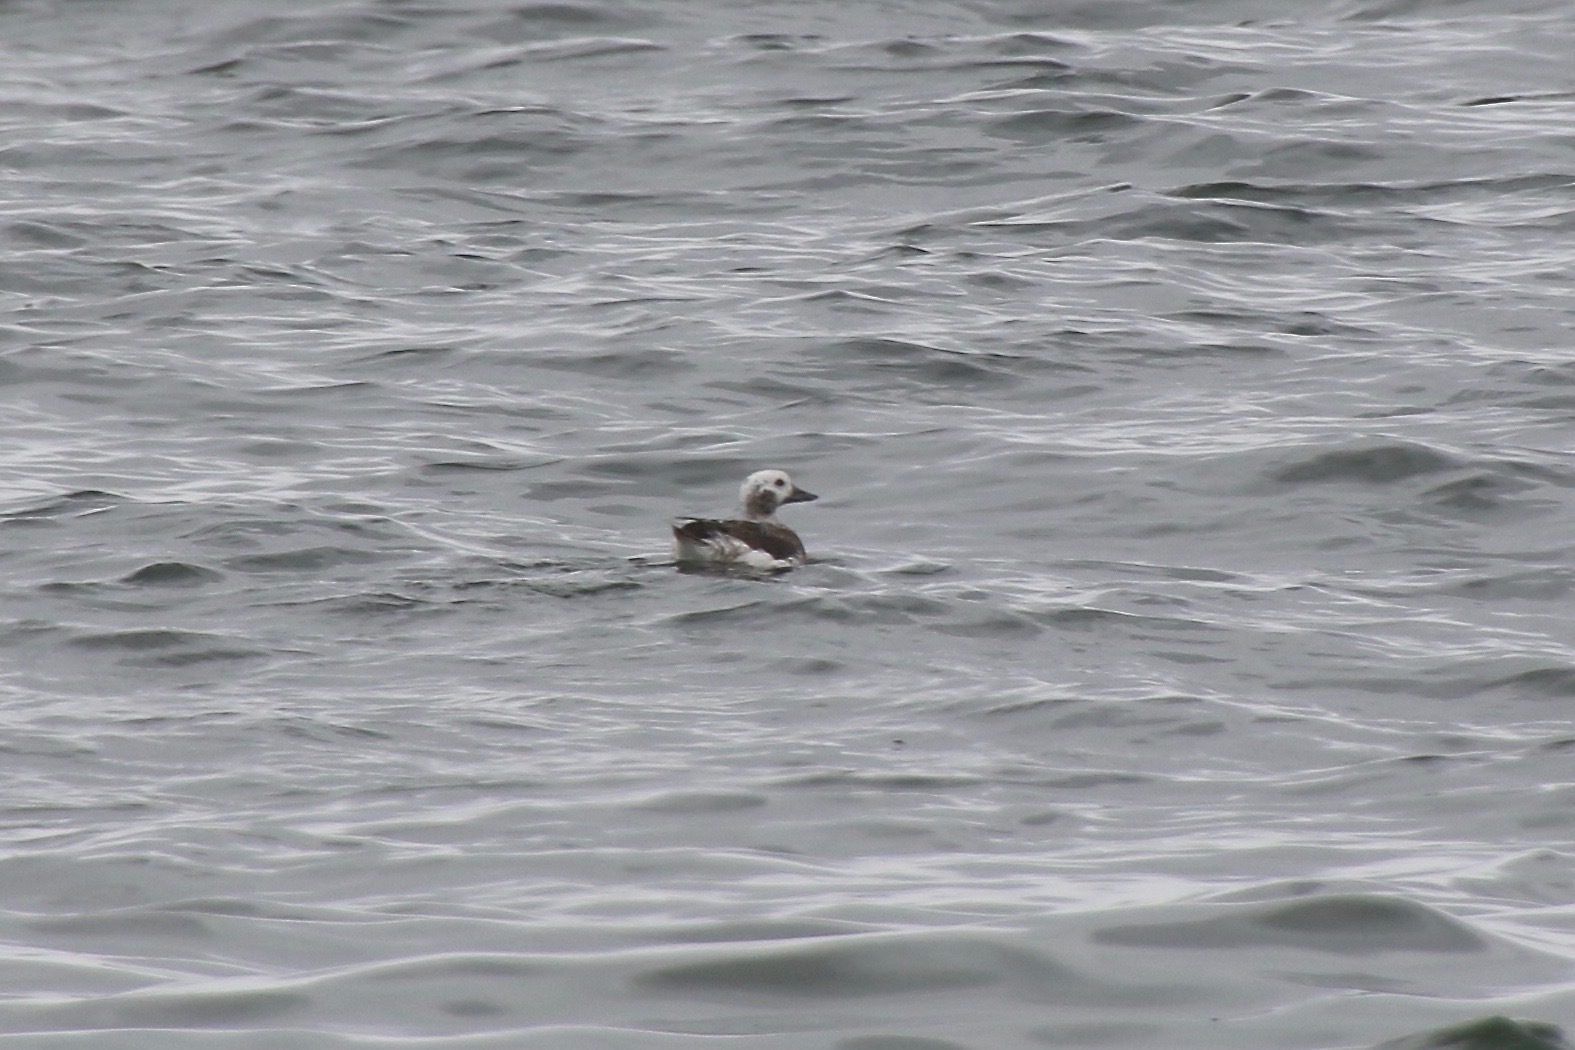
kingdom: Animalia
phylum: Chordata
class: Aves
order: Anseriformes
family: Anatidae
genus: Clangula
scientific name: Clangula hyemalis
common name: Long-tailed duck
